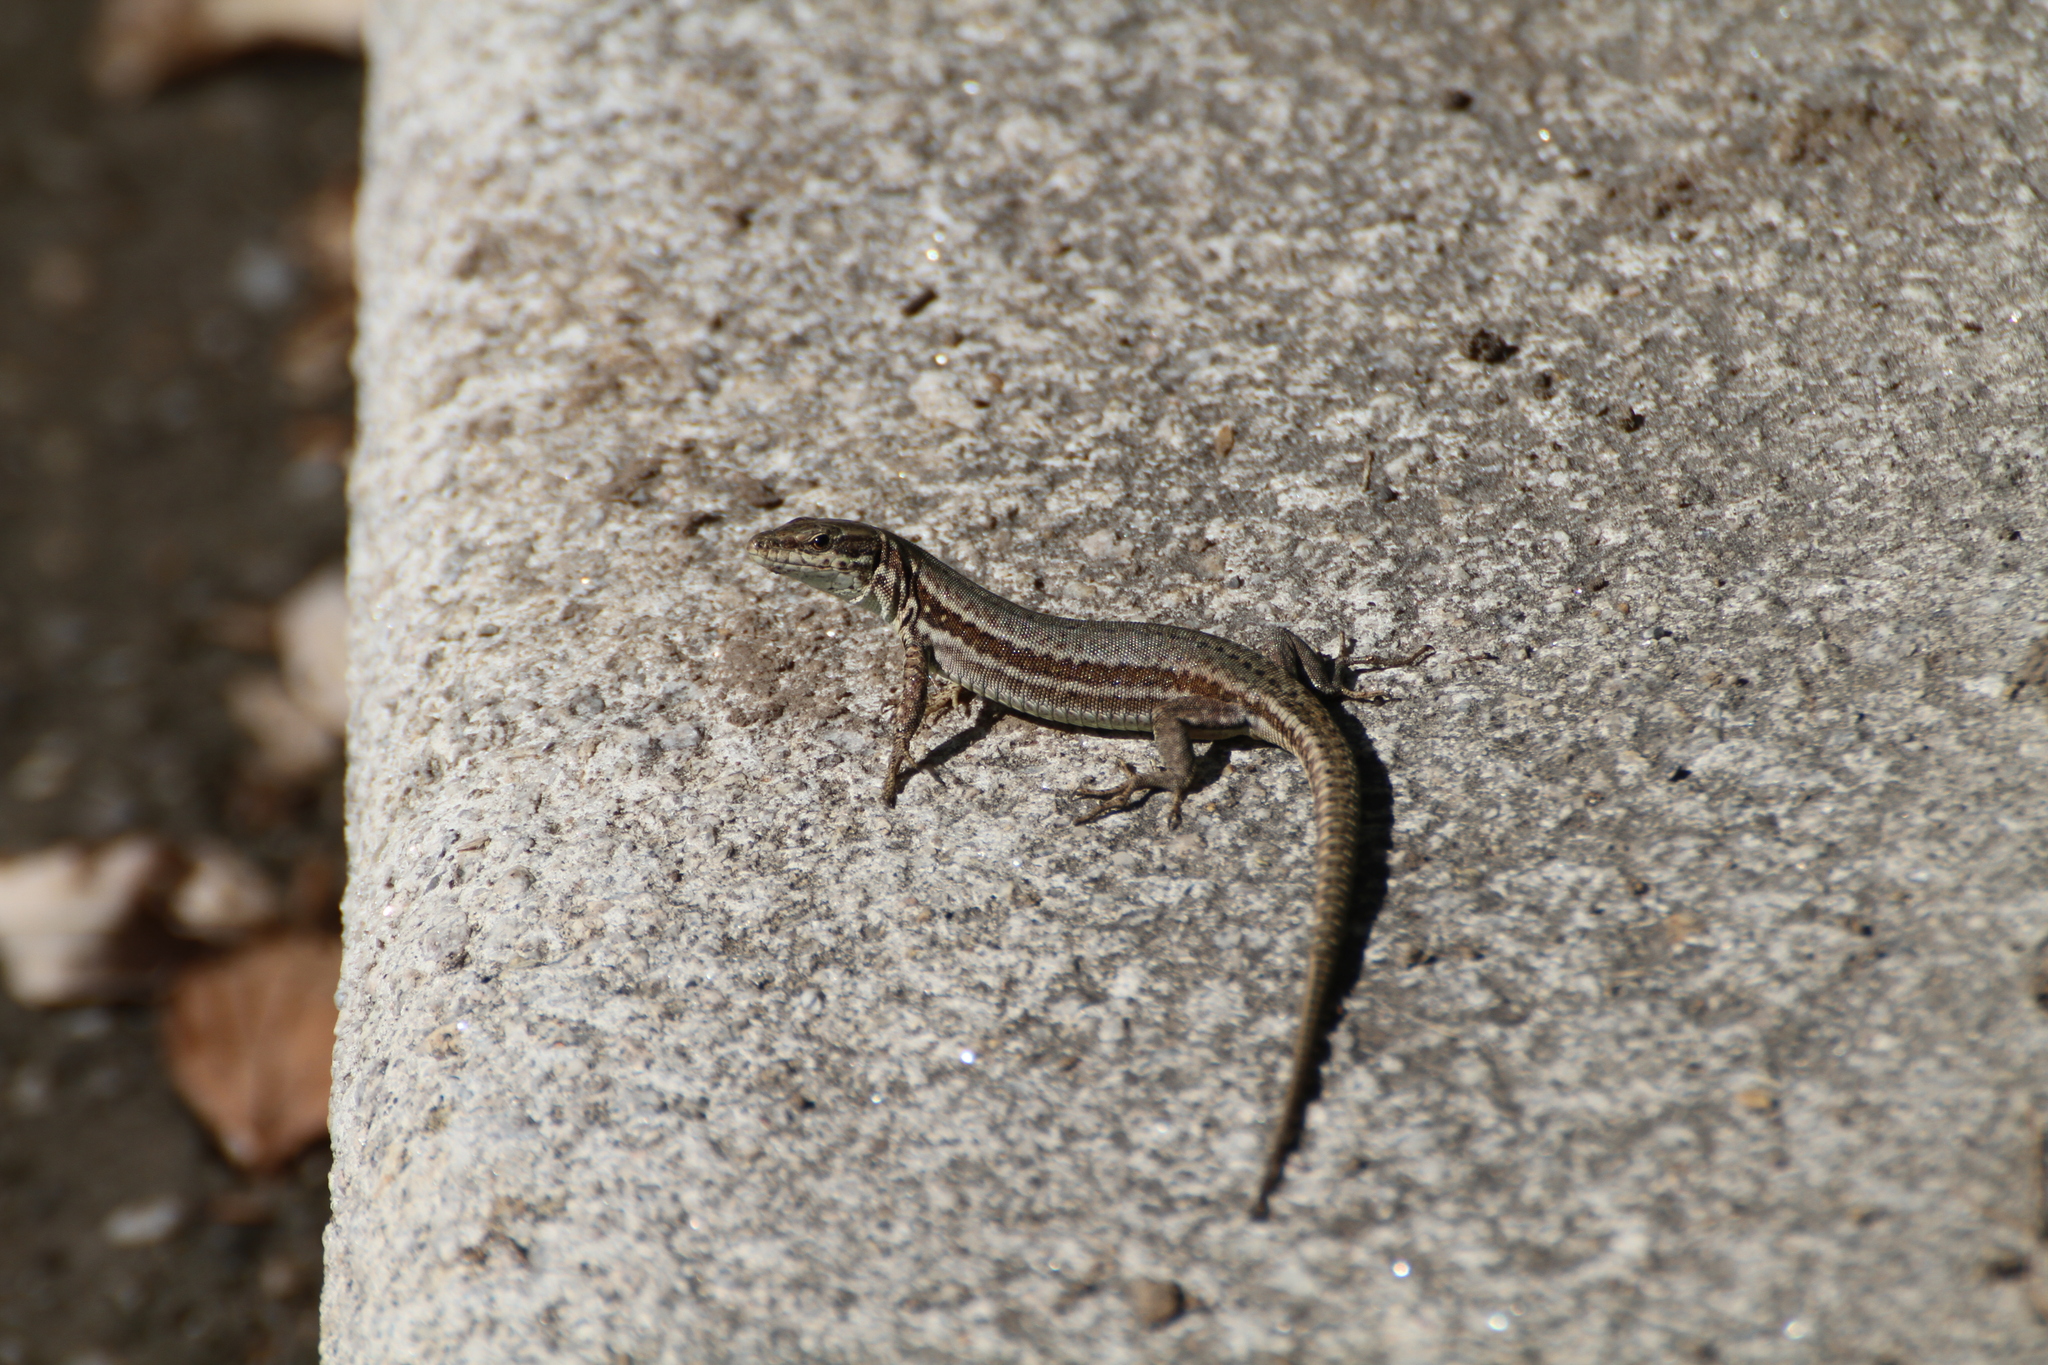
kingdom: Animalia
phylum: Chordata
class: Squamata
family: Lacertidae
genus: Podarcis
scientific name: Podarcis muralis
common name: Common wall lizard
